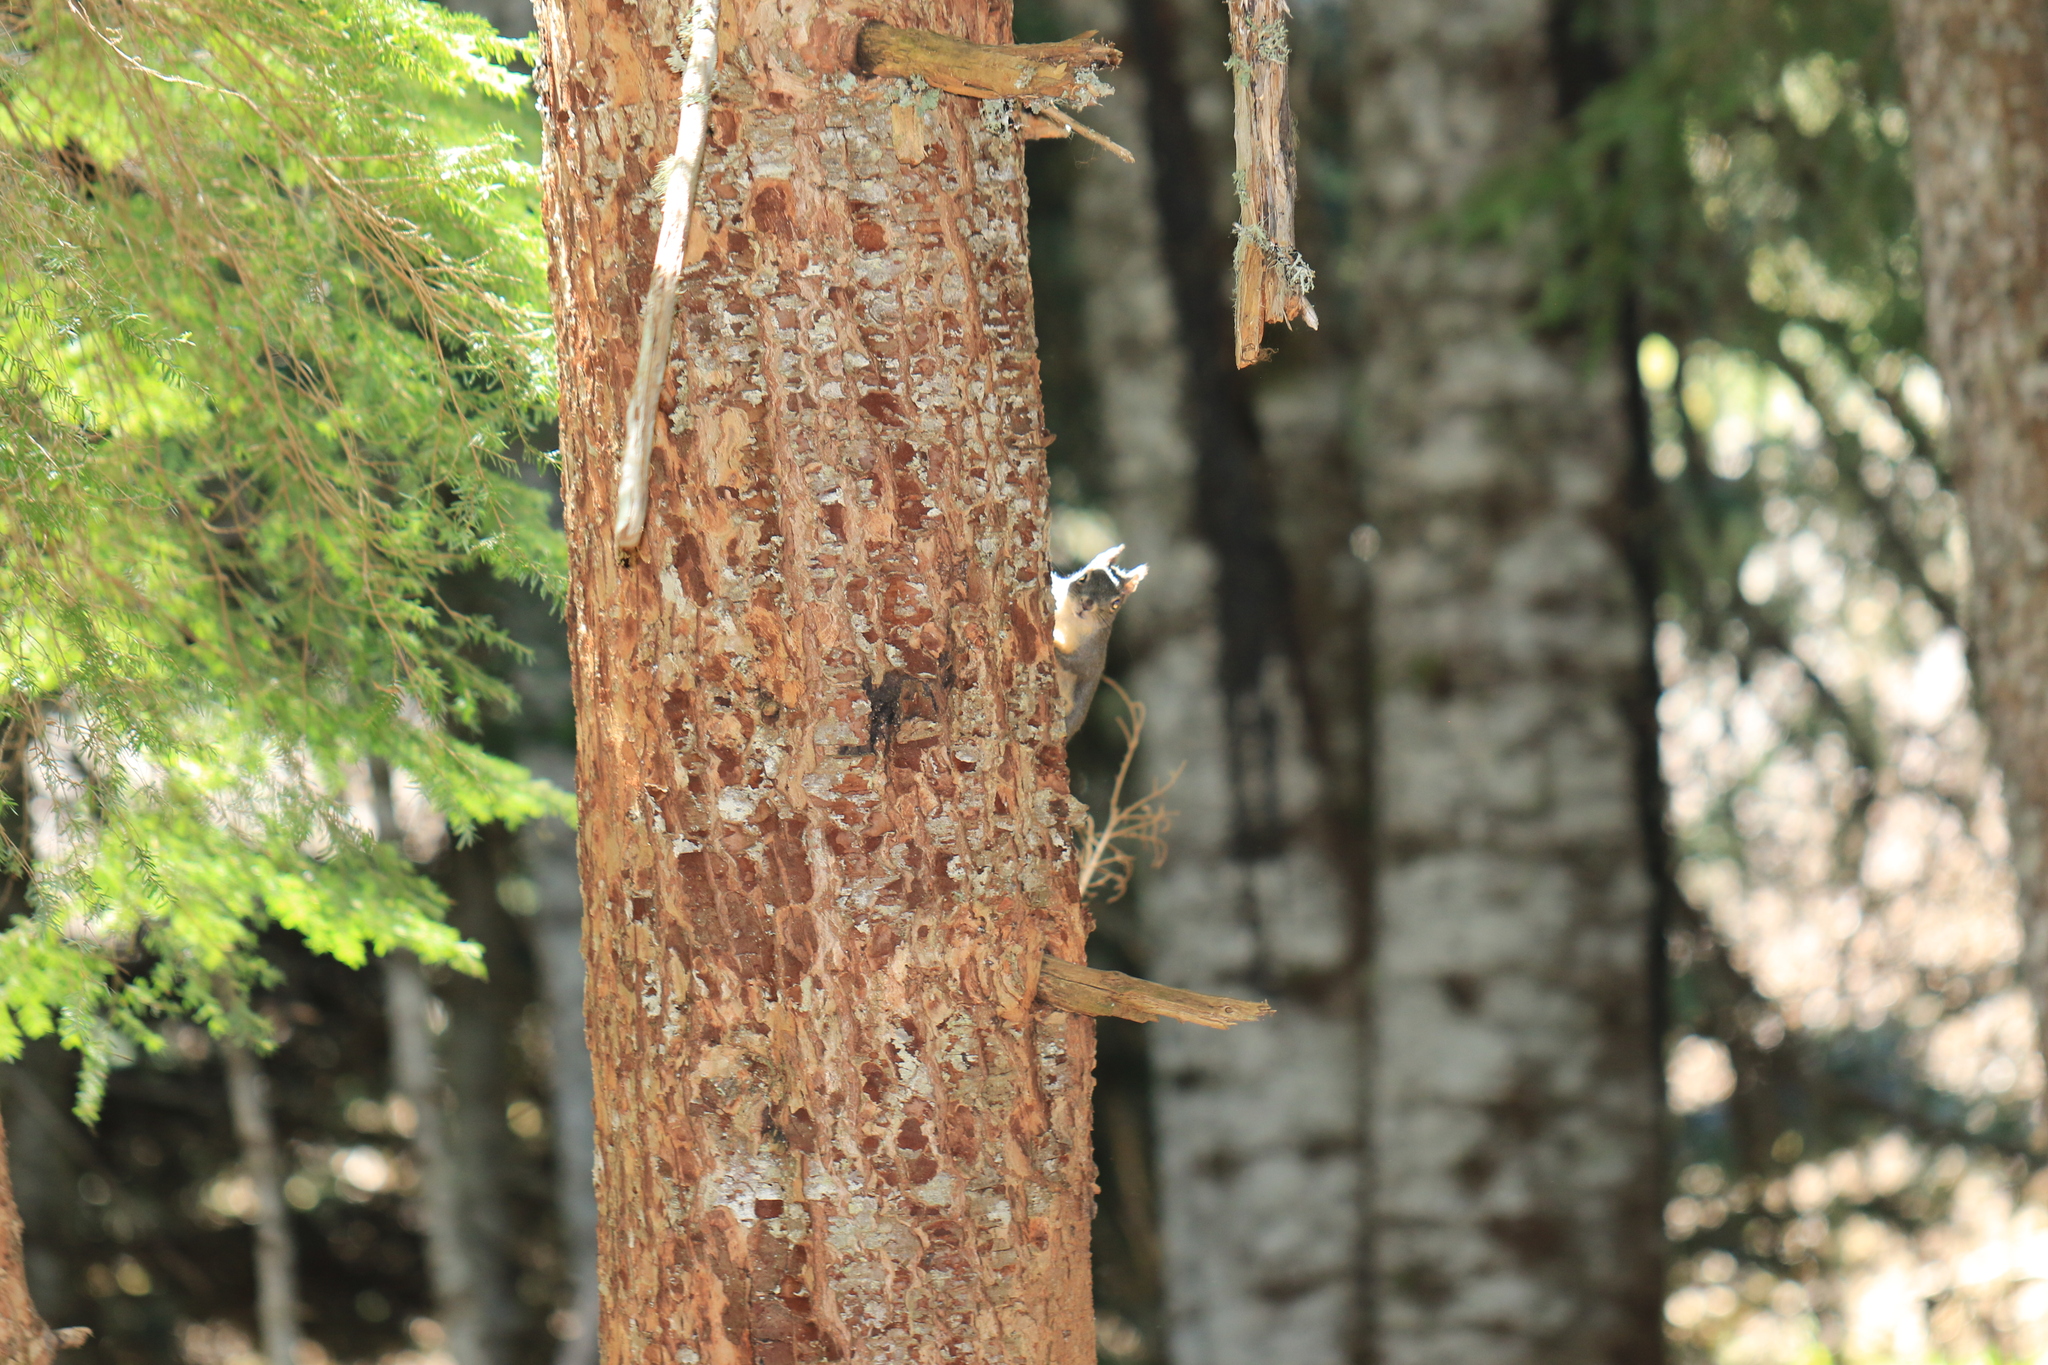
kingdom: Animalia
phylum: Chordata
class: Mammalia
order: Rodentia
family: Sciuridae
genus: Tamiasciurus
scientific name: Tamiasciurus douglasii
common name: Douglas's squirrel
